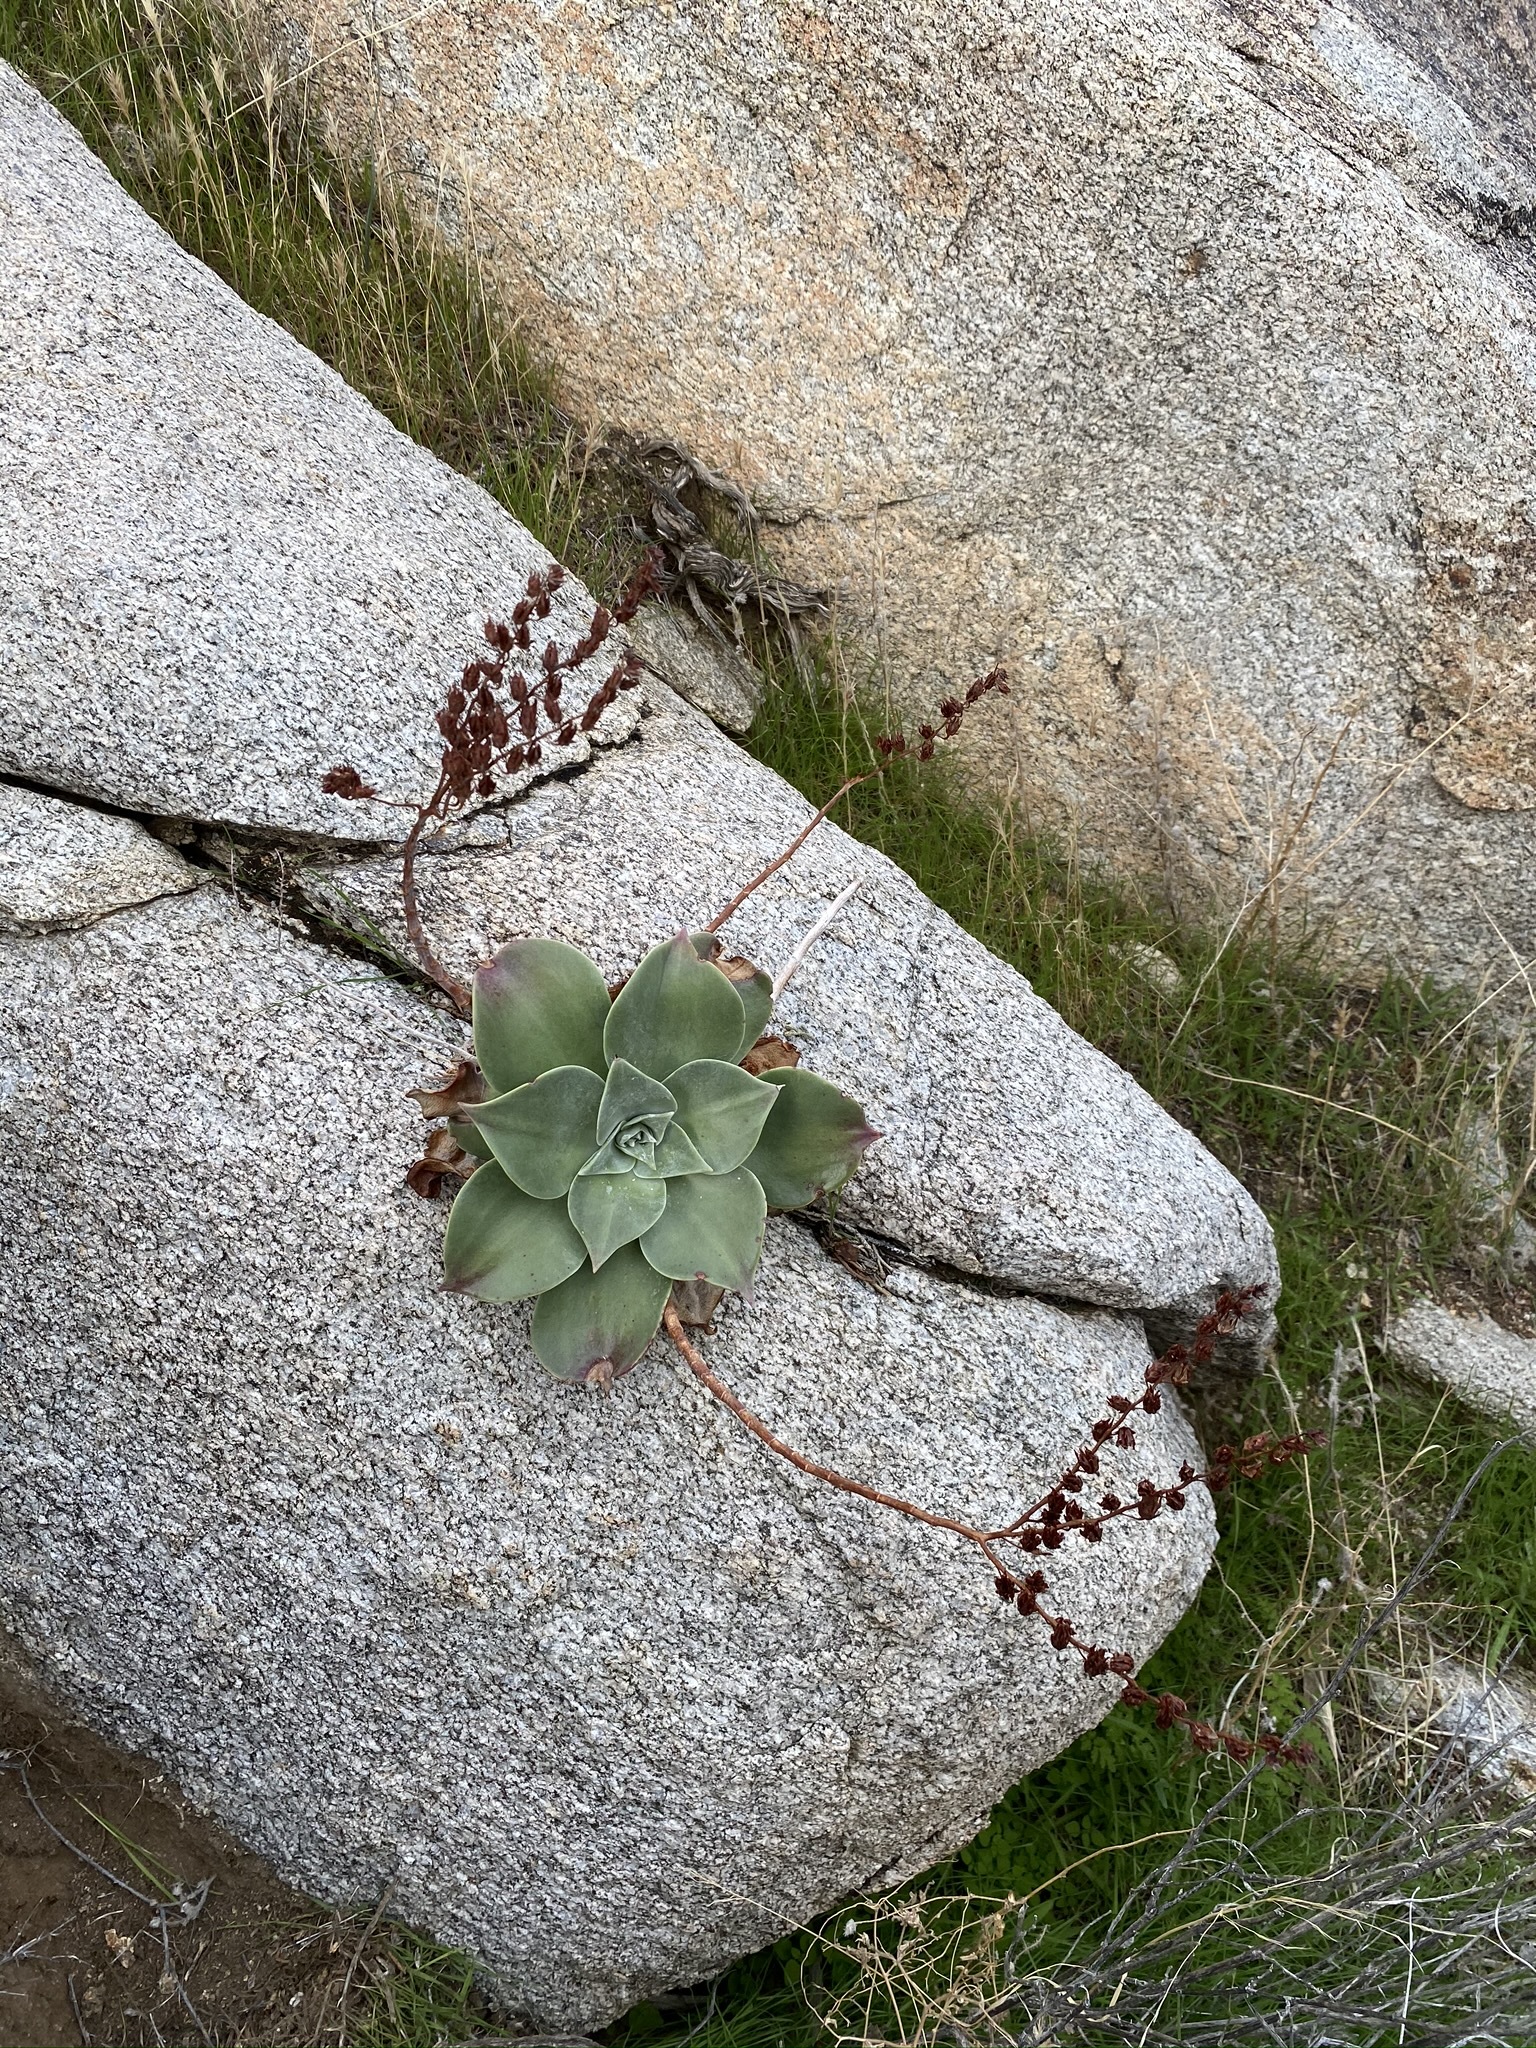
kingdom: Plantae
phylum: Tracheophyta
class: Magnoliopsida
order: Saxifragales
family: Crassulaceae
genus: Dudleya
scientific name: Dudleya arizonica
